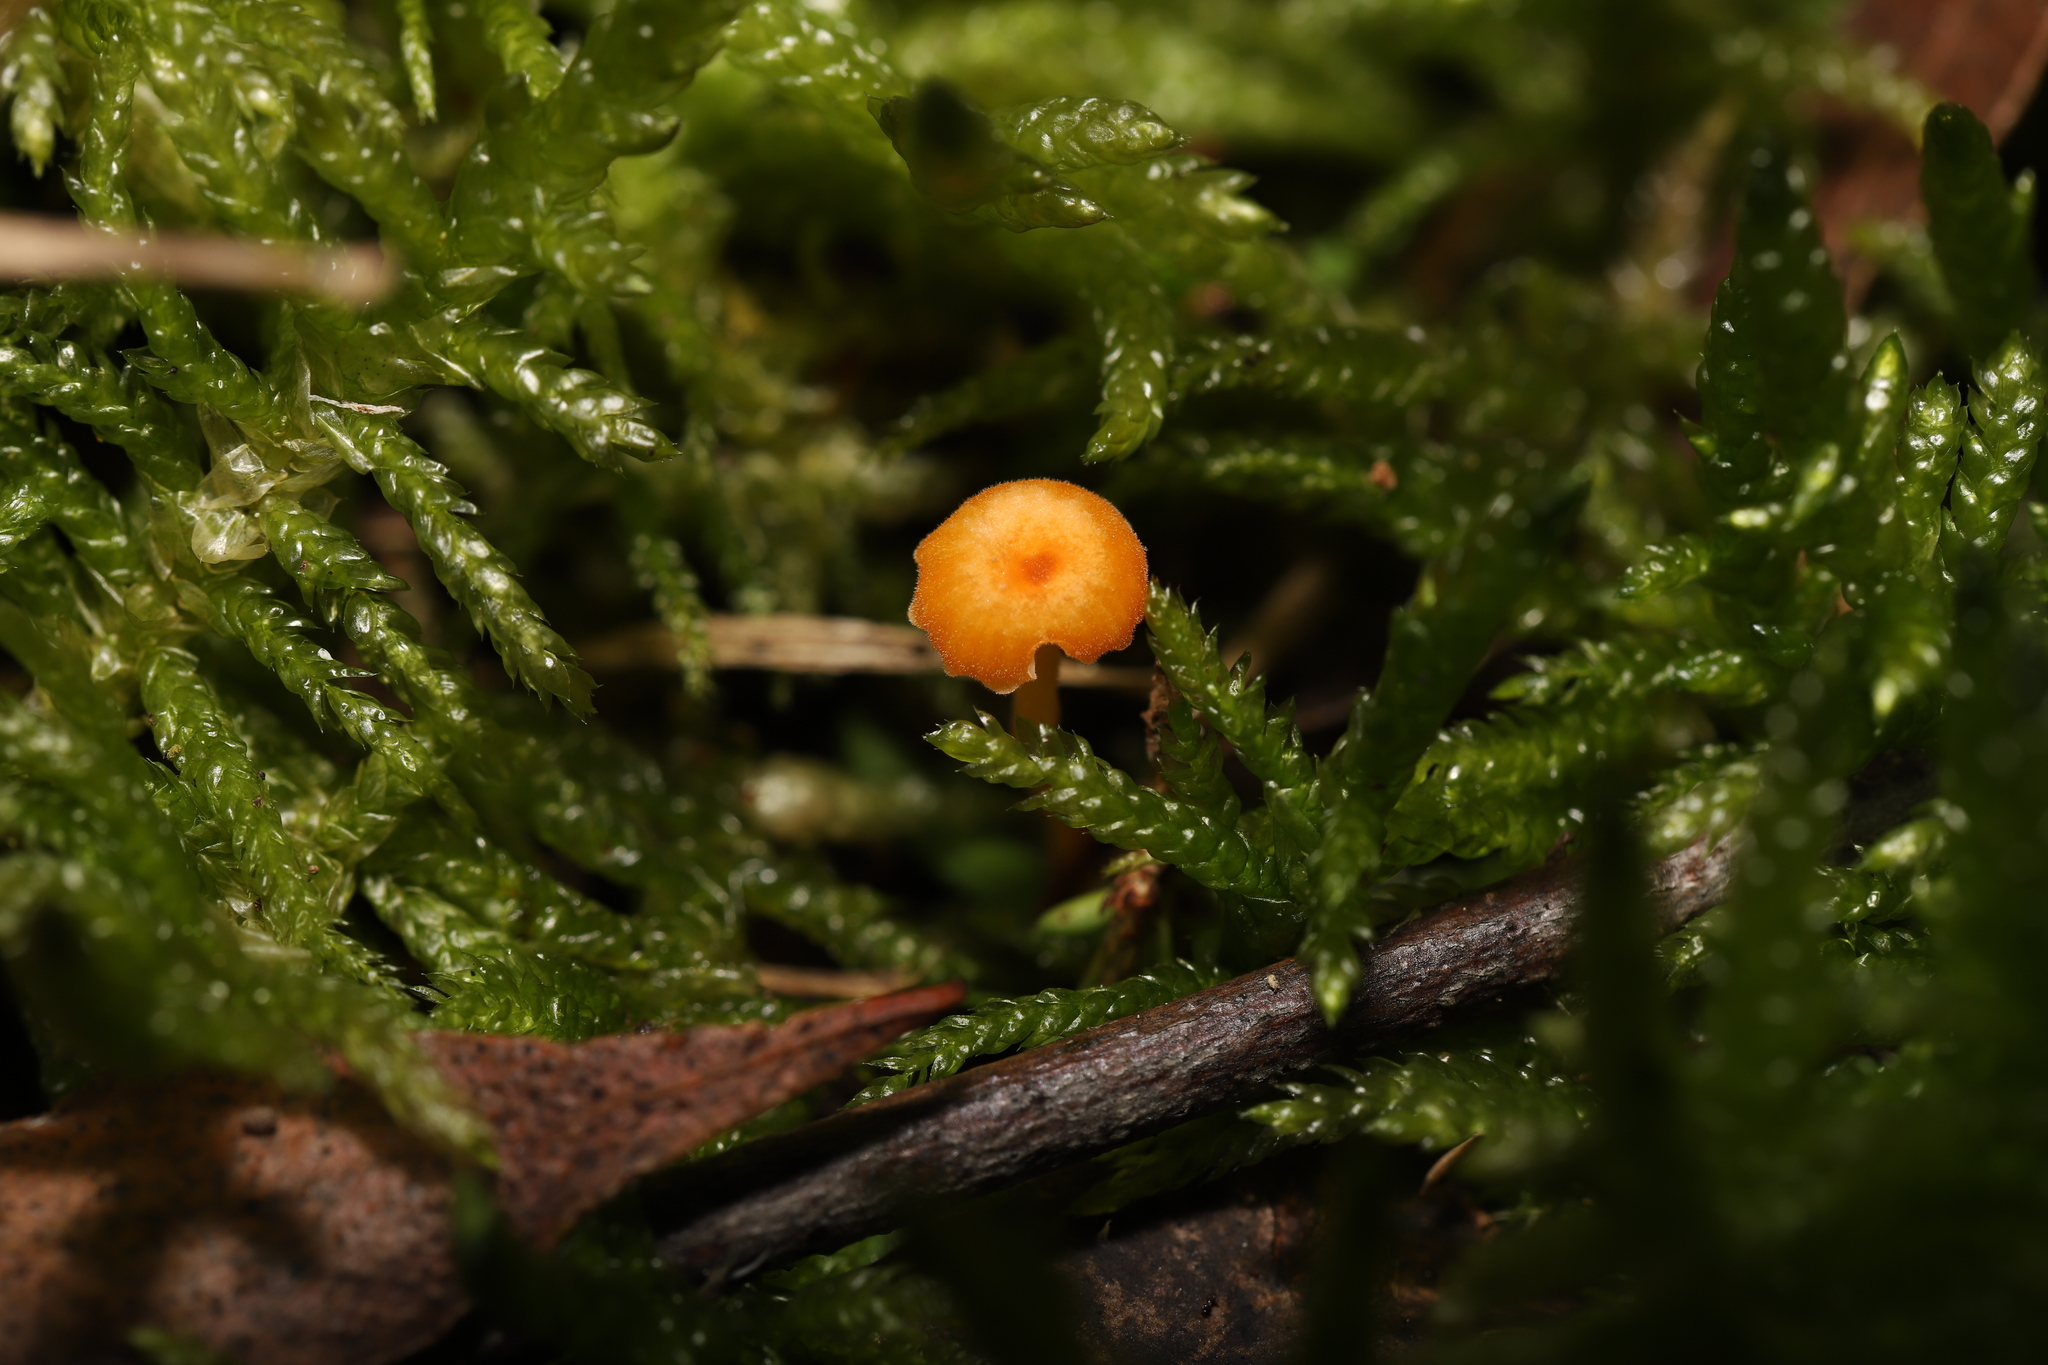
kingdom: Fungi
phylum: Basidiomycota
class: Agaricomycetes
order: Hymenochaetales
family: Rickenellaceae
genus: Rickenella
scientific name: Rickenella fibula
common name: Orange mosscap
